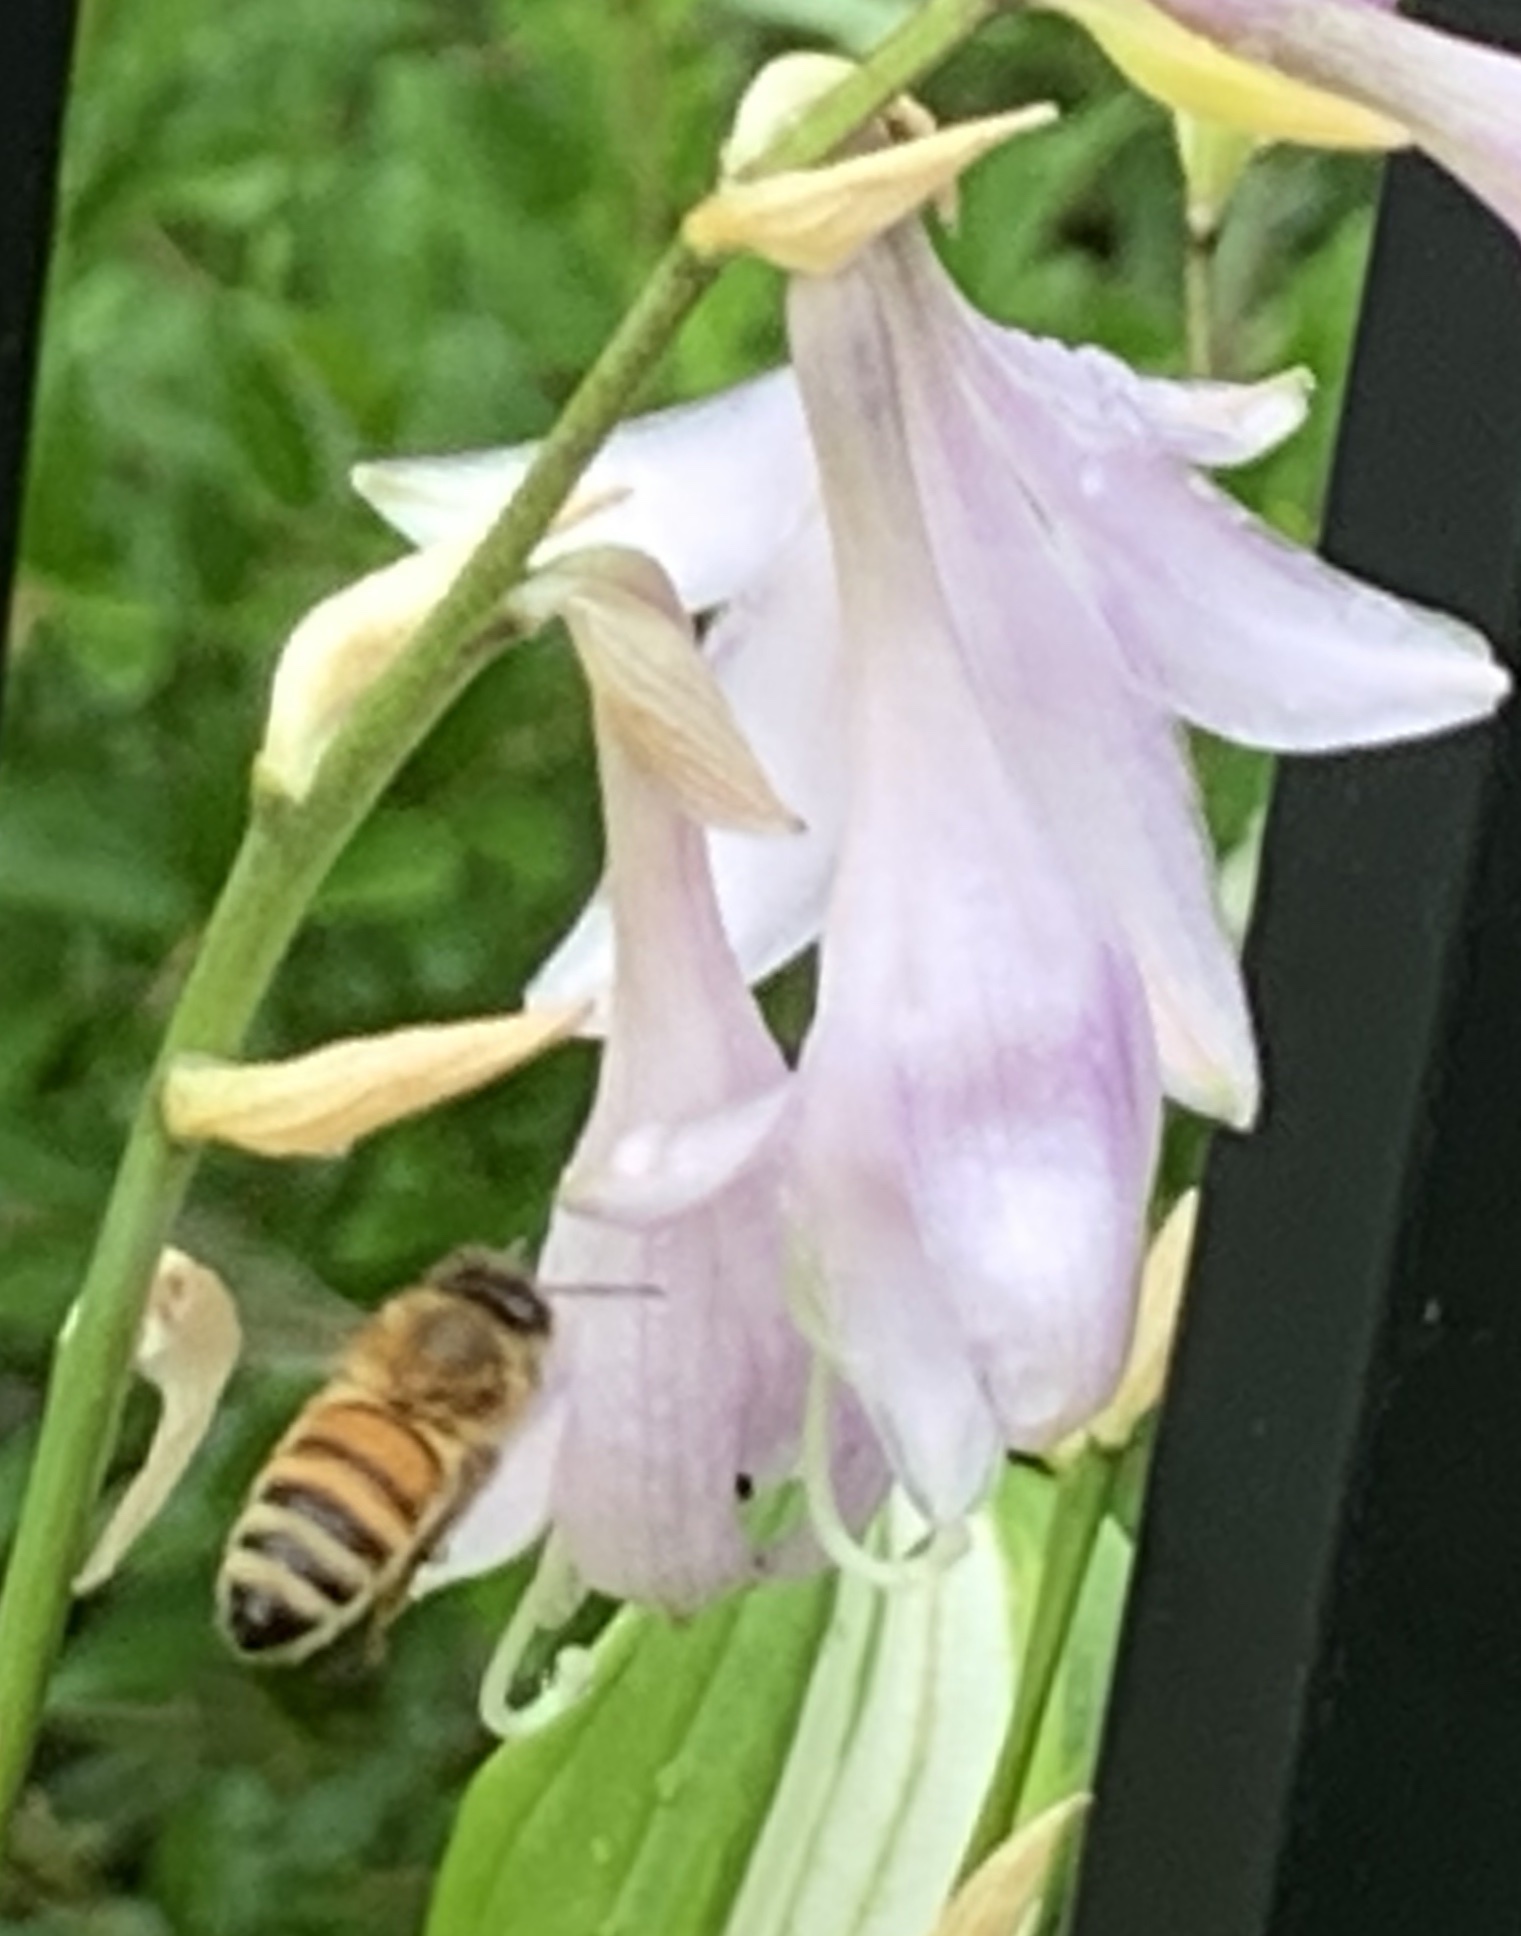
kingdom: Animalia
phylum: Arthropoda
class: Insecta
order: Hymenoptera
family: Apidae
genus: Apis
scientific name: Apis mellifera
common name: Honey bee
